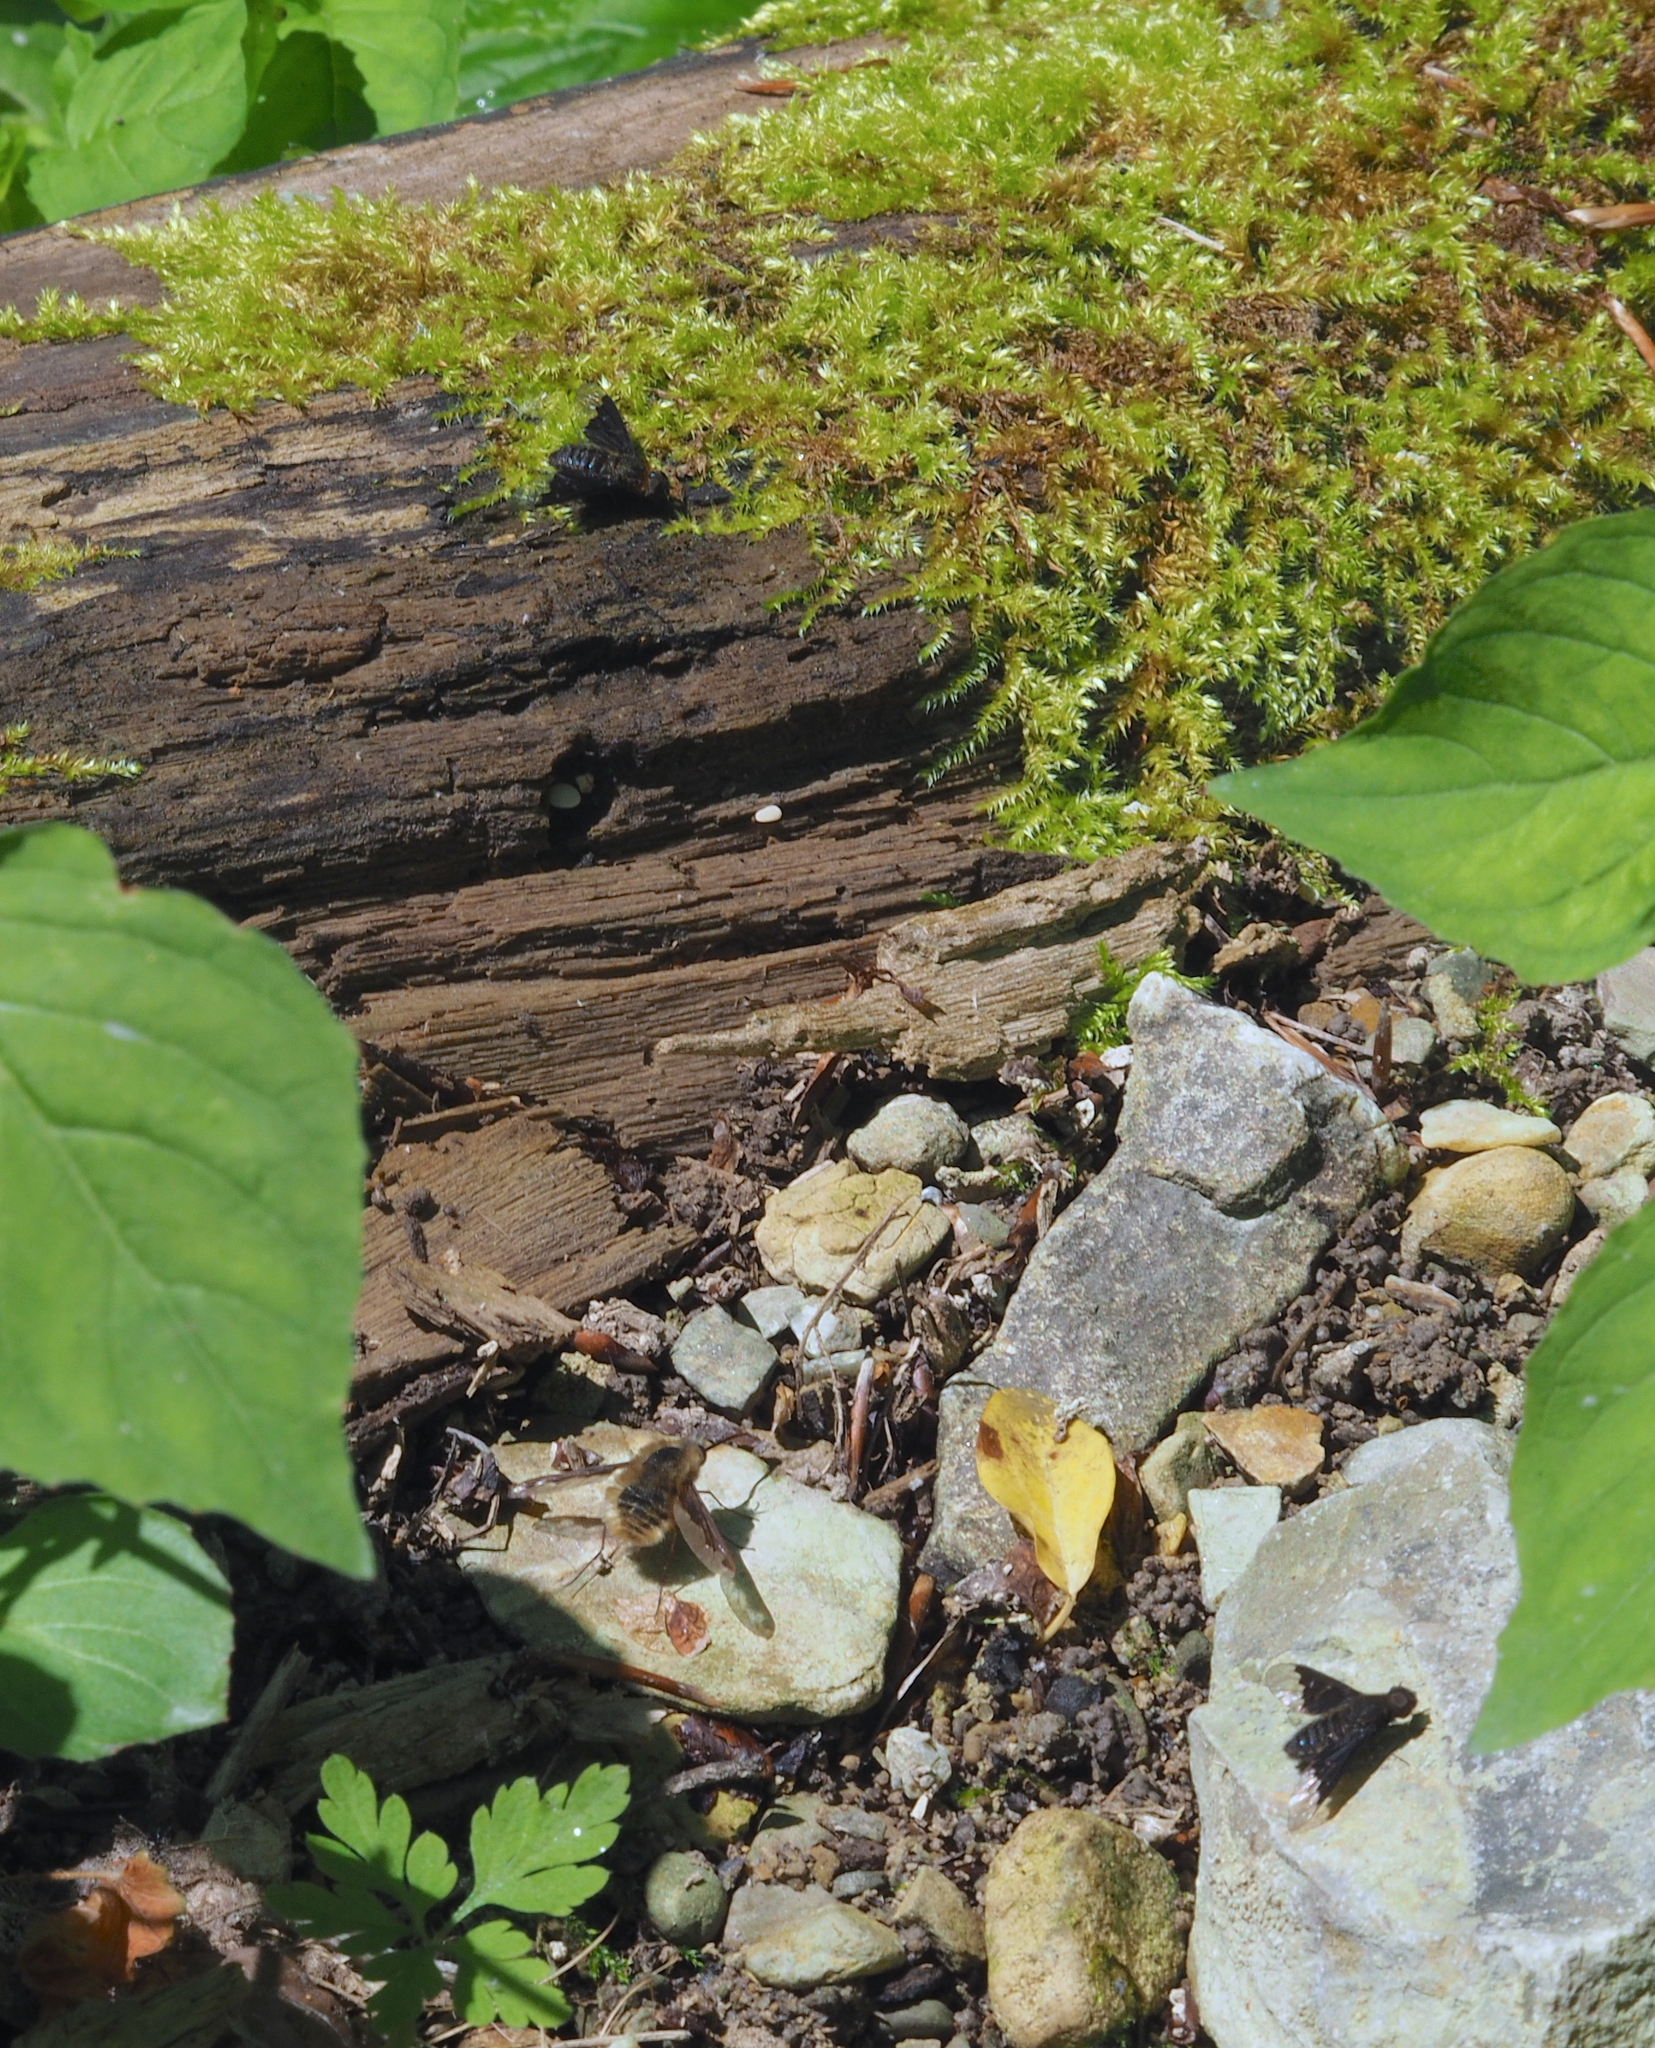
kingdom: Animalia
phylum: Arthropoda
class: Insecta
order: Diptera
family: Bombyliidae
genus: Hemipenthes
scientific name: Hemipenthes morio
